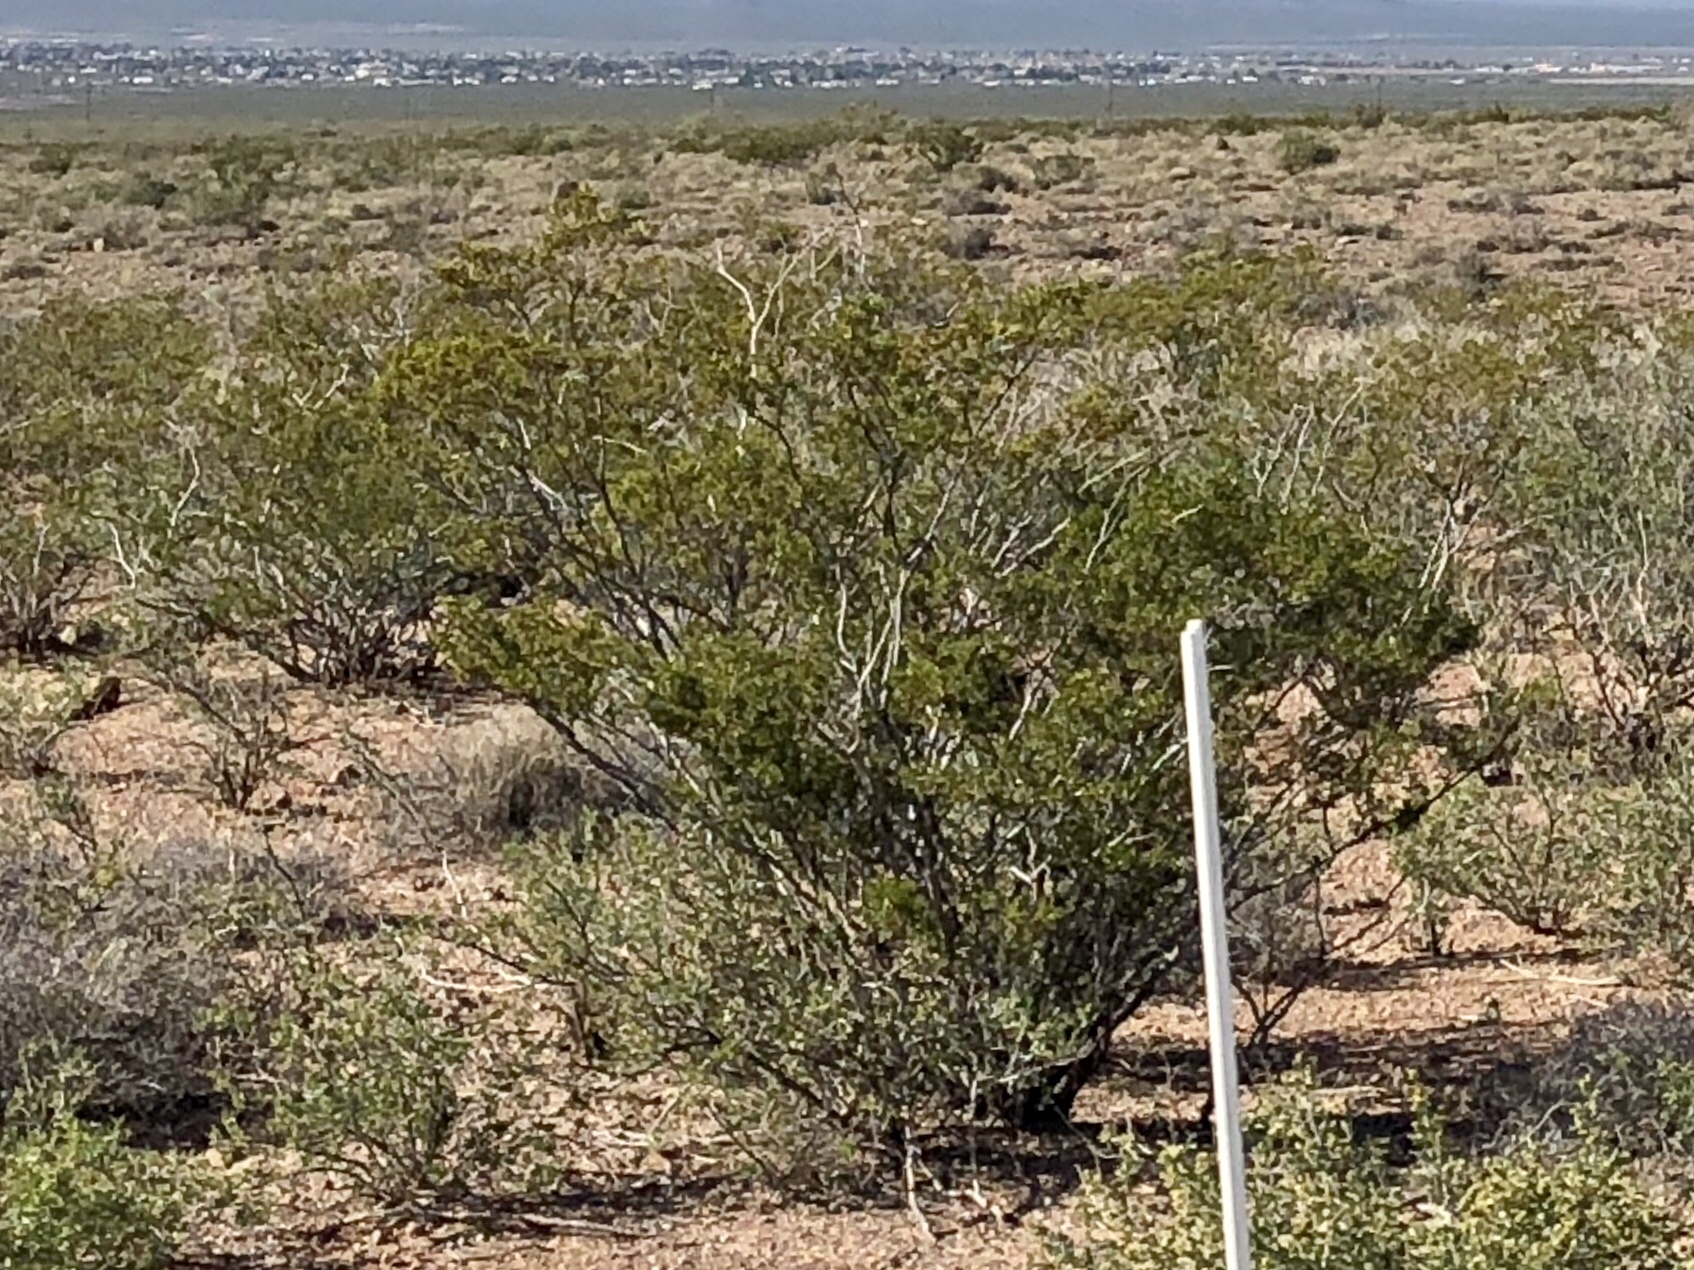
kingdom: Plantae
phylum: Tracheophyta
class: Magnoliopsida
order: Zygophyllales
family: Zygophyllaceae
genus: Larrea
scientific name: Larrea tridentata
